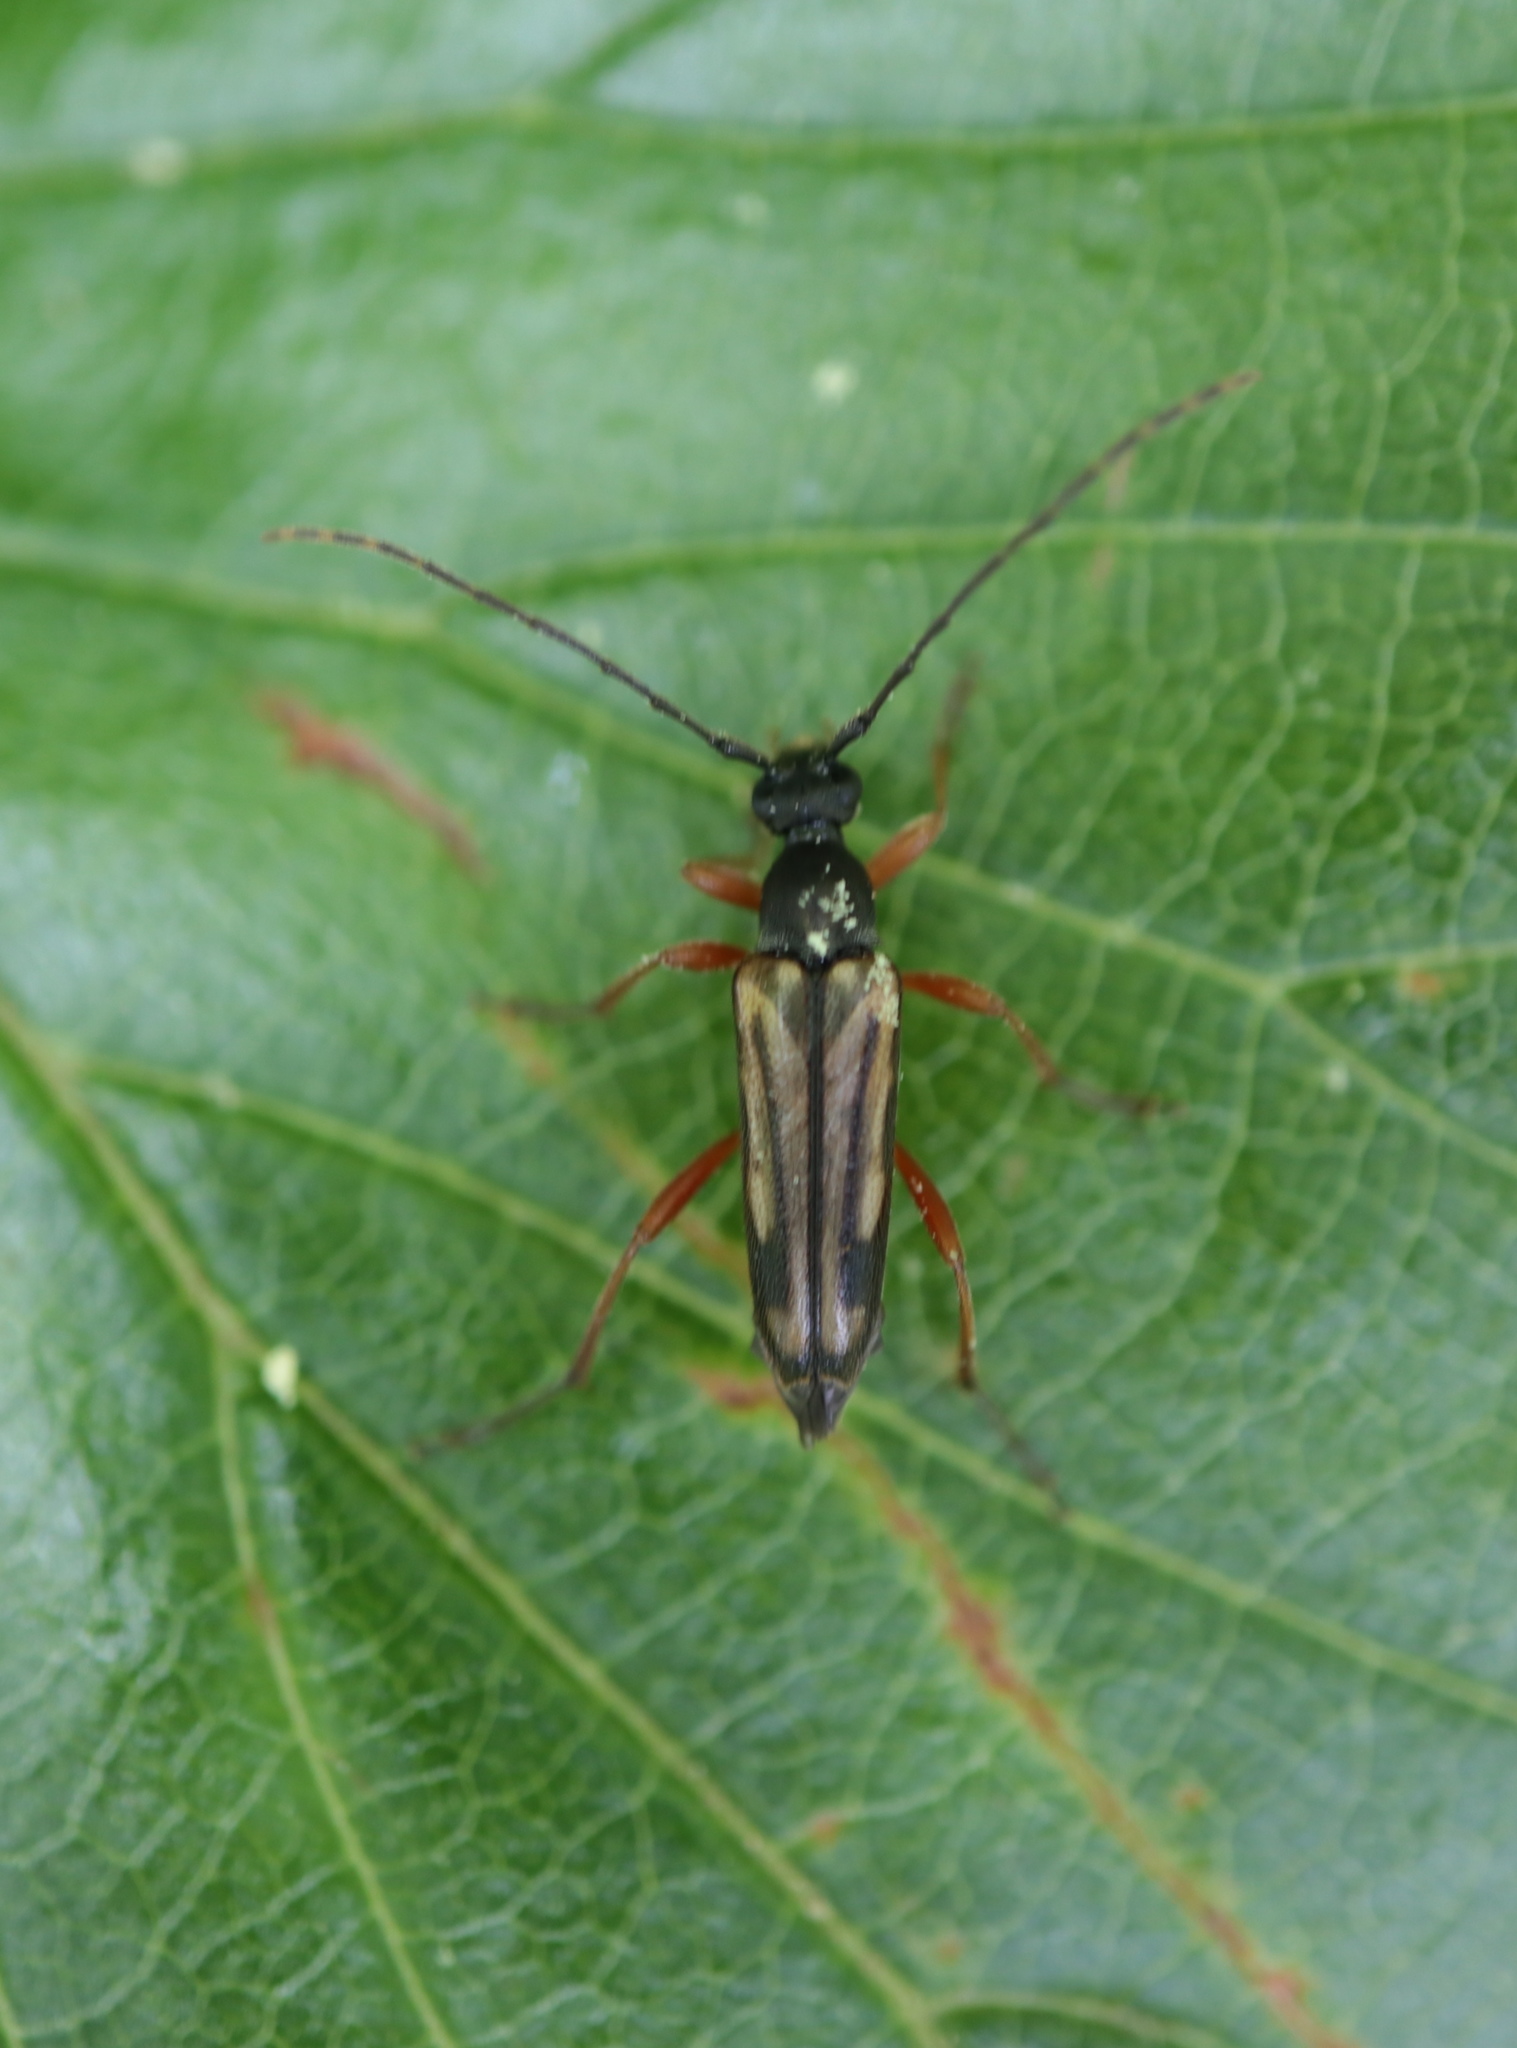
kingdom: Animalia
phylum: Arthropoda
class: Insecta
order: Coleoptera
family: Cerambycidae
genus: Analeptura
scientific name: Analeptura lineola
